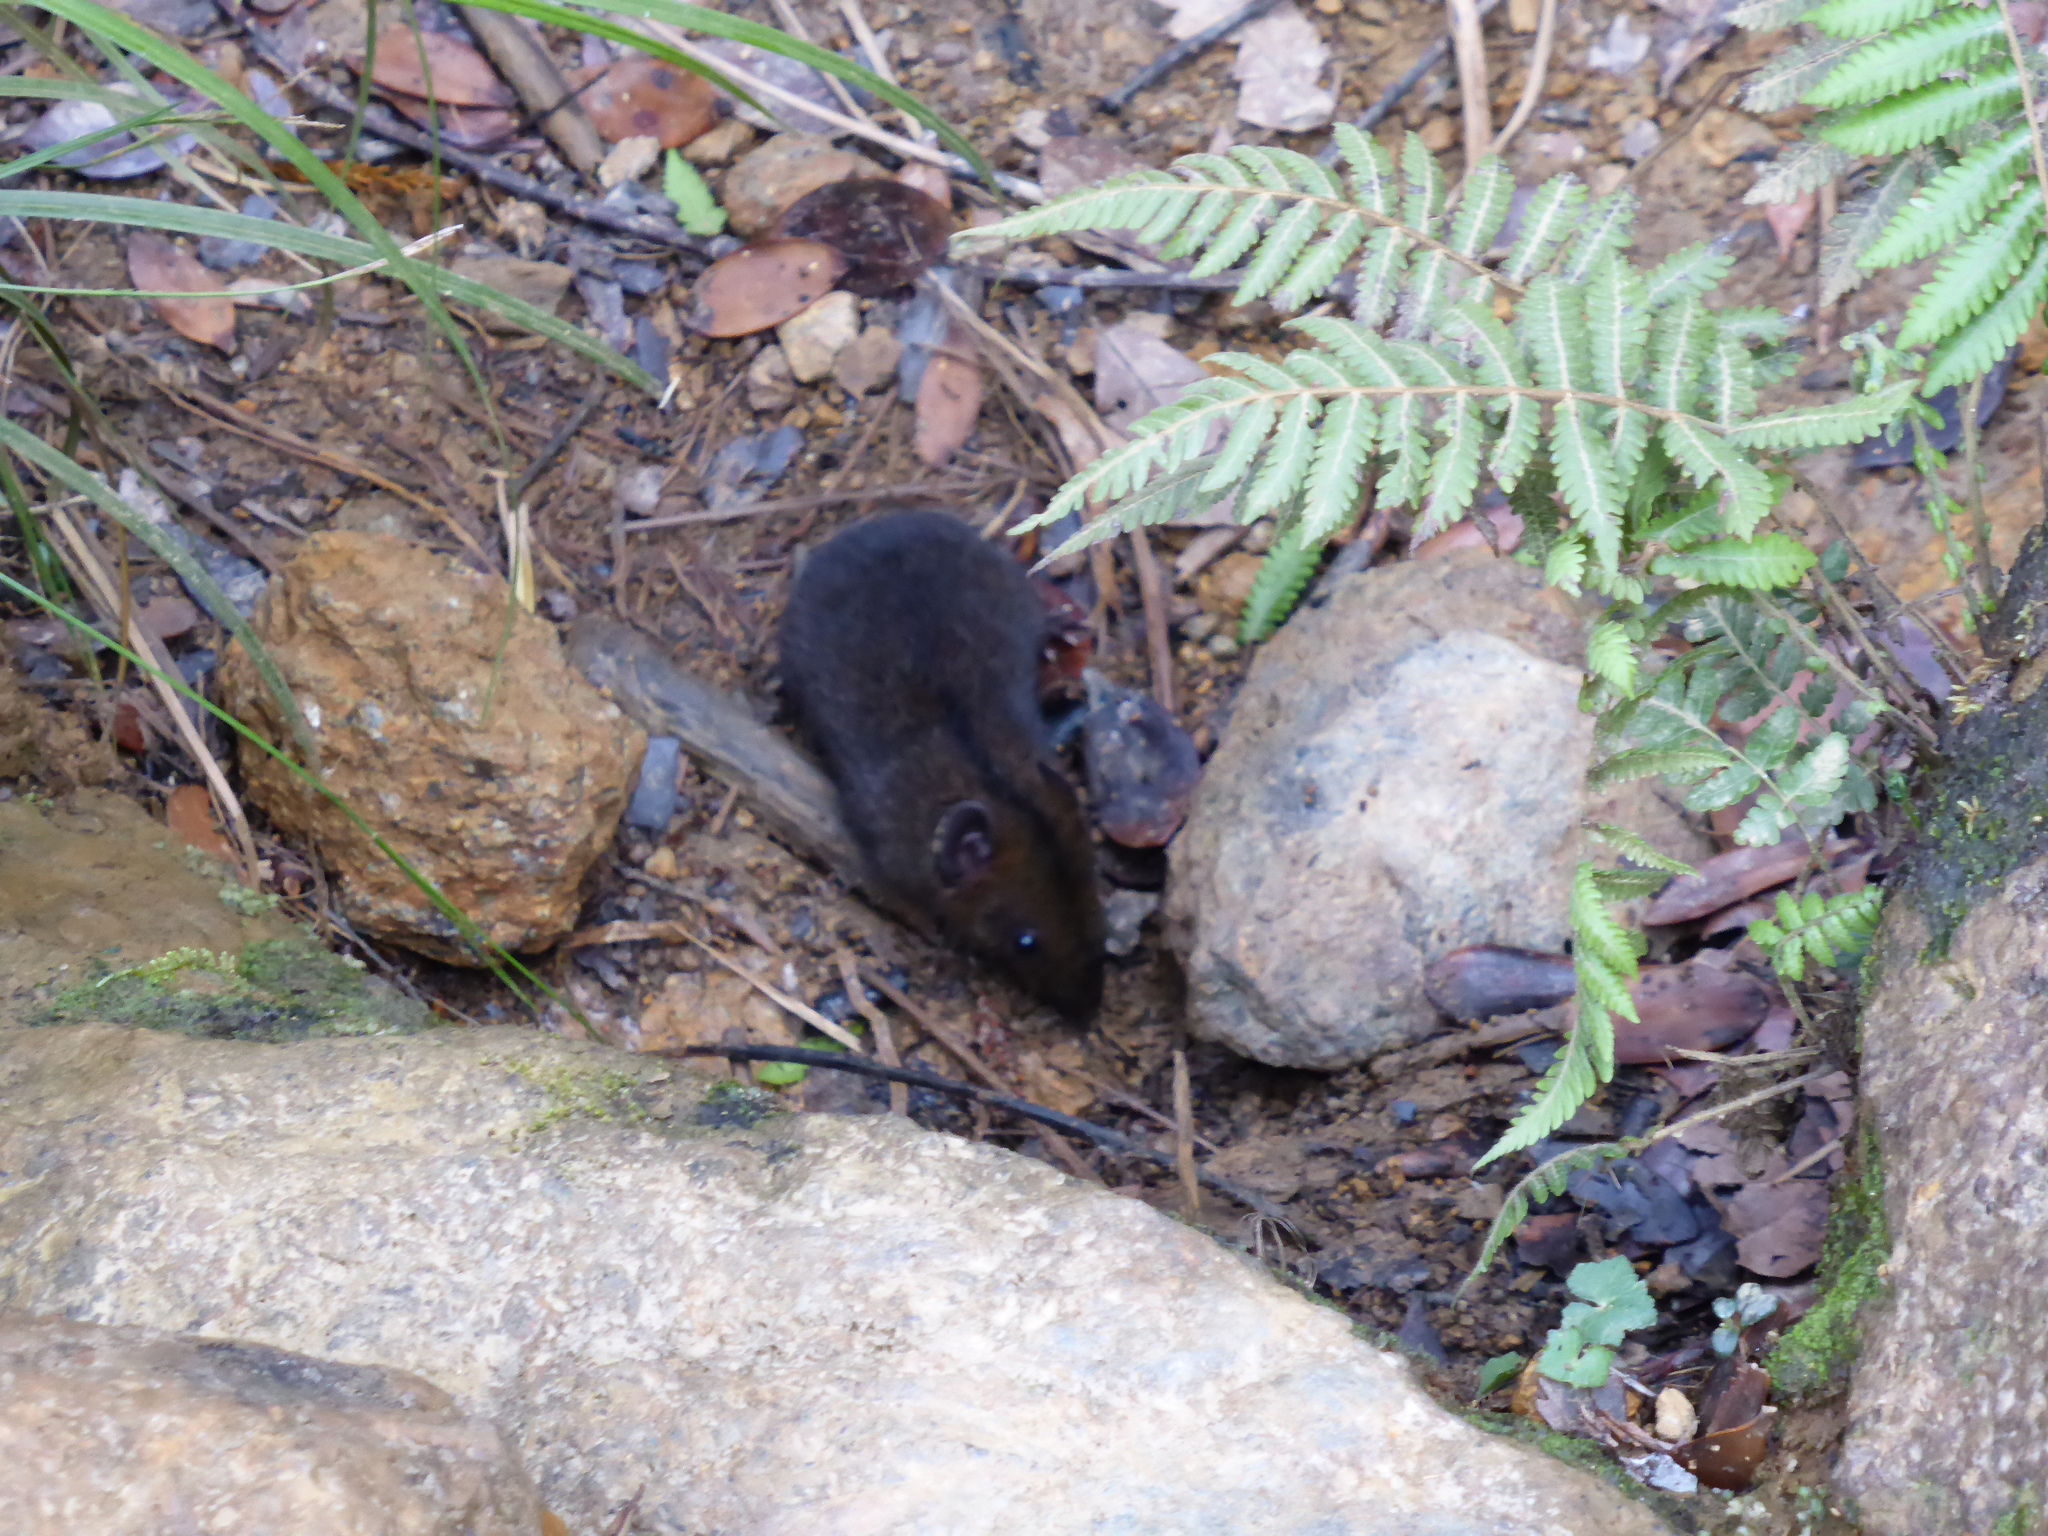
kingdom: Animalia
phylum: Chordata
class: Mammalia
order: Erinaceomorpha
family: Erinaceidae
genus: Hylomys
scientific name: Hylomys suillus
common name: Short-tailed gymnure
